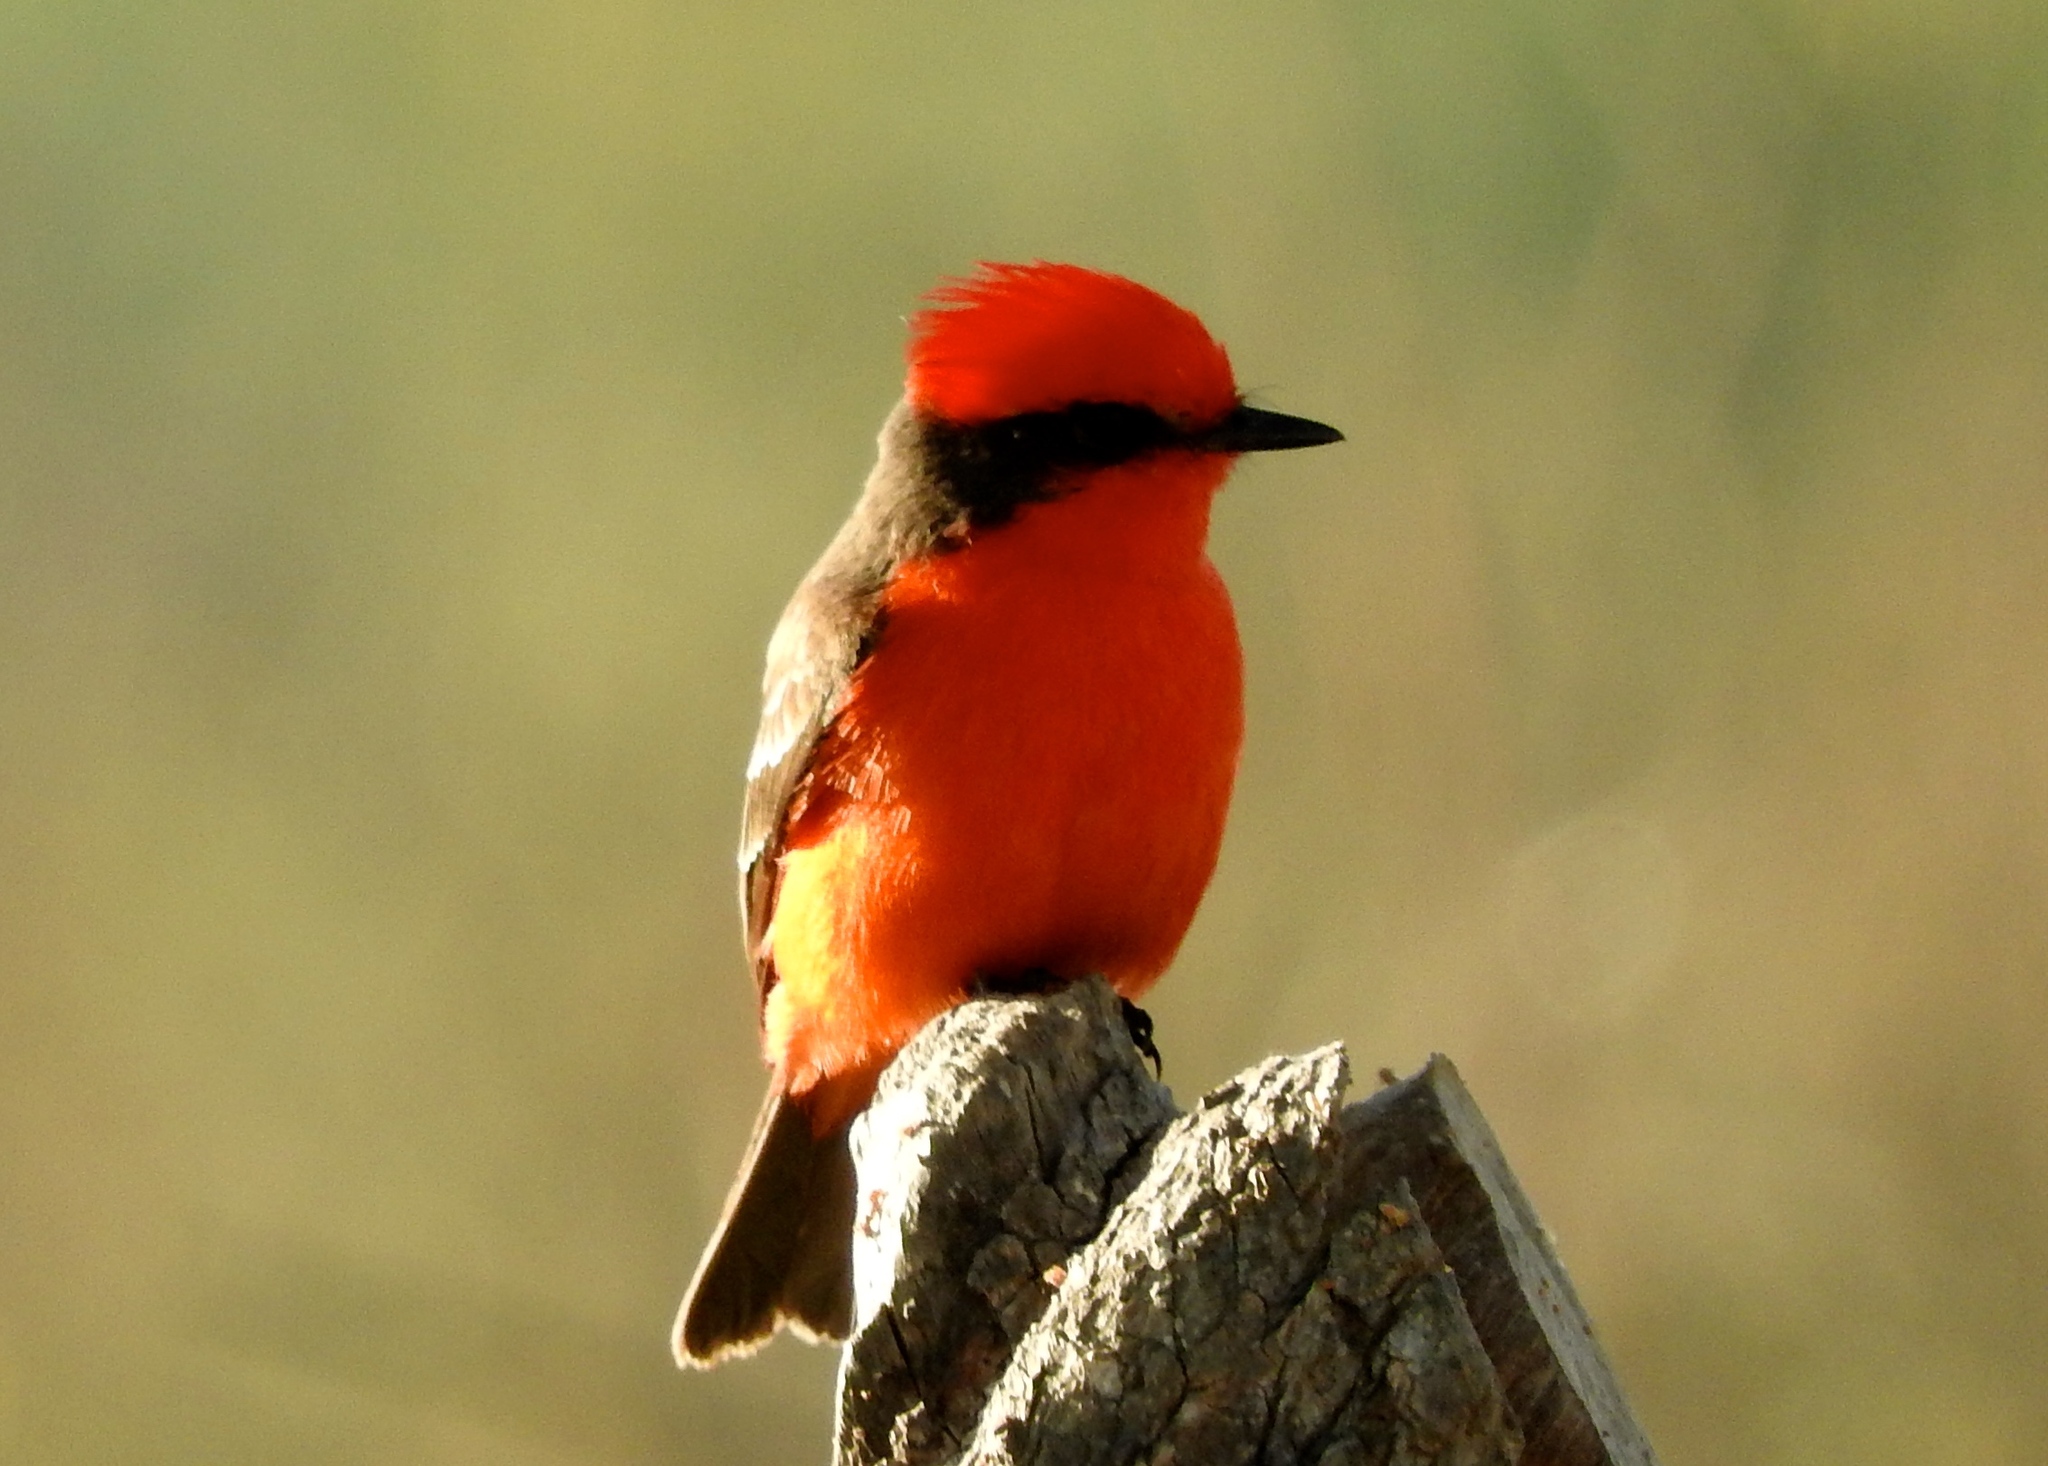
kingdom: Animalia
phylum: Chordata
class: Aves
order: Passeriformes
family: Tyrannidae
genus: Pyrocephalus
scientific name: Pyrocephalus rubinus
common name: Vermilion flycatcher
